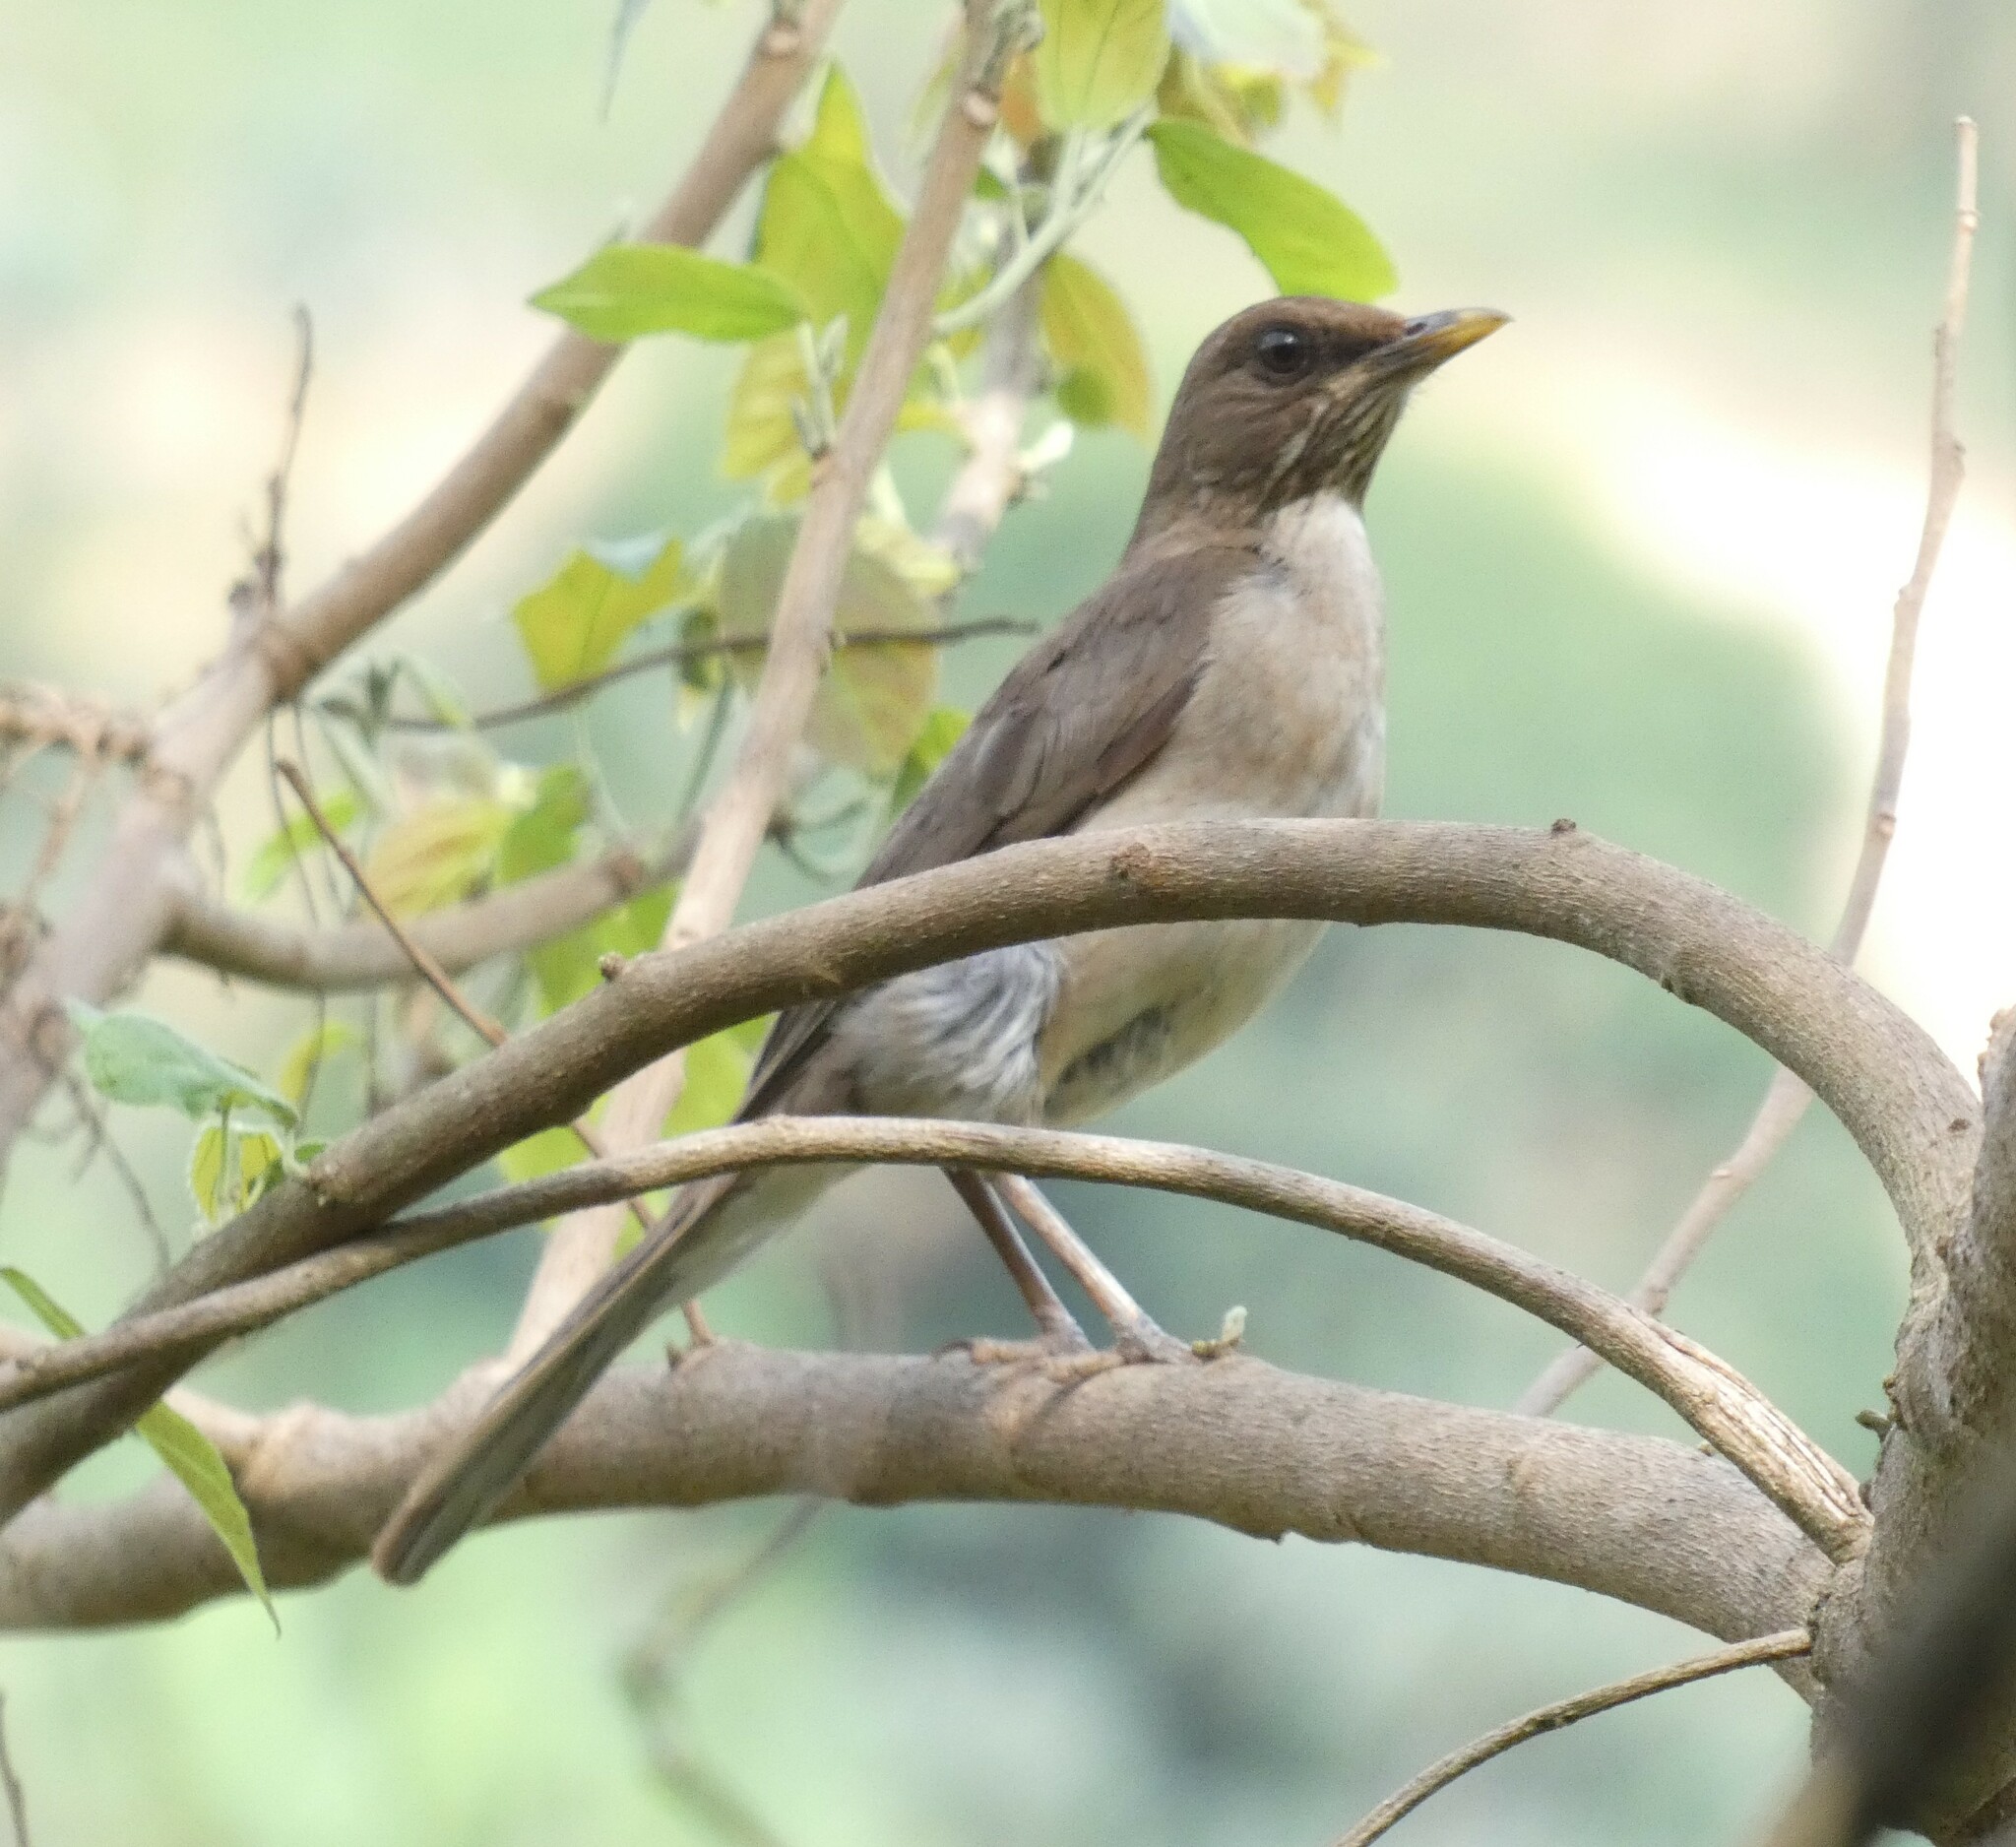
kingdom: Animalia
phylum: Chordata
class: Aves
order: Passeriformes
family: Turdidae
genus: Turdus
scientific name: Turdus amaurochalinus
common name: Creamy-bellied thrush
